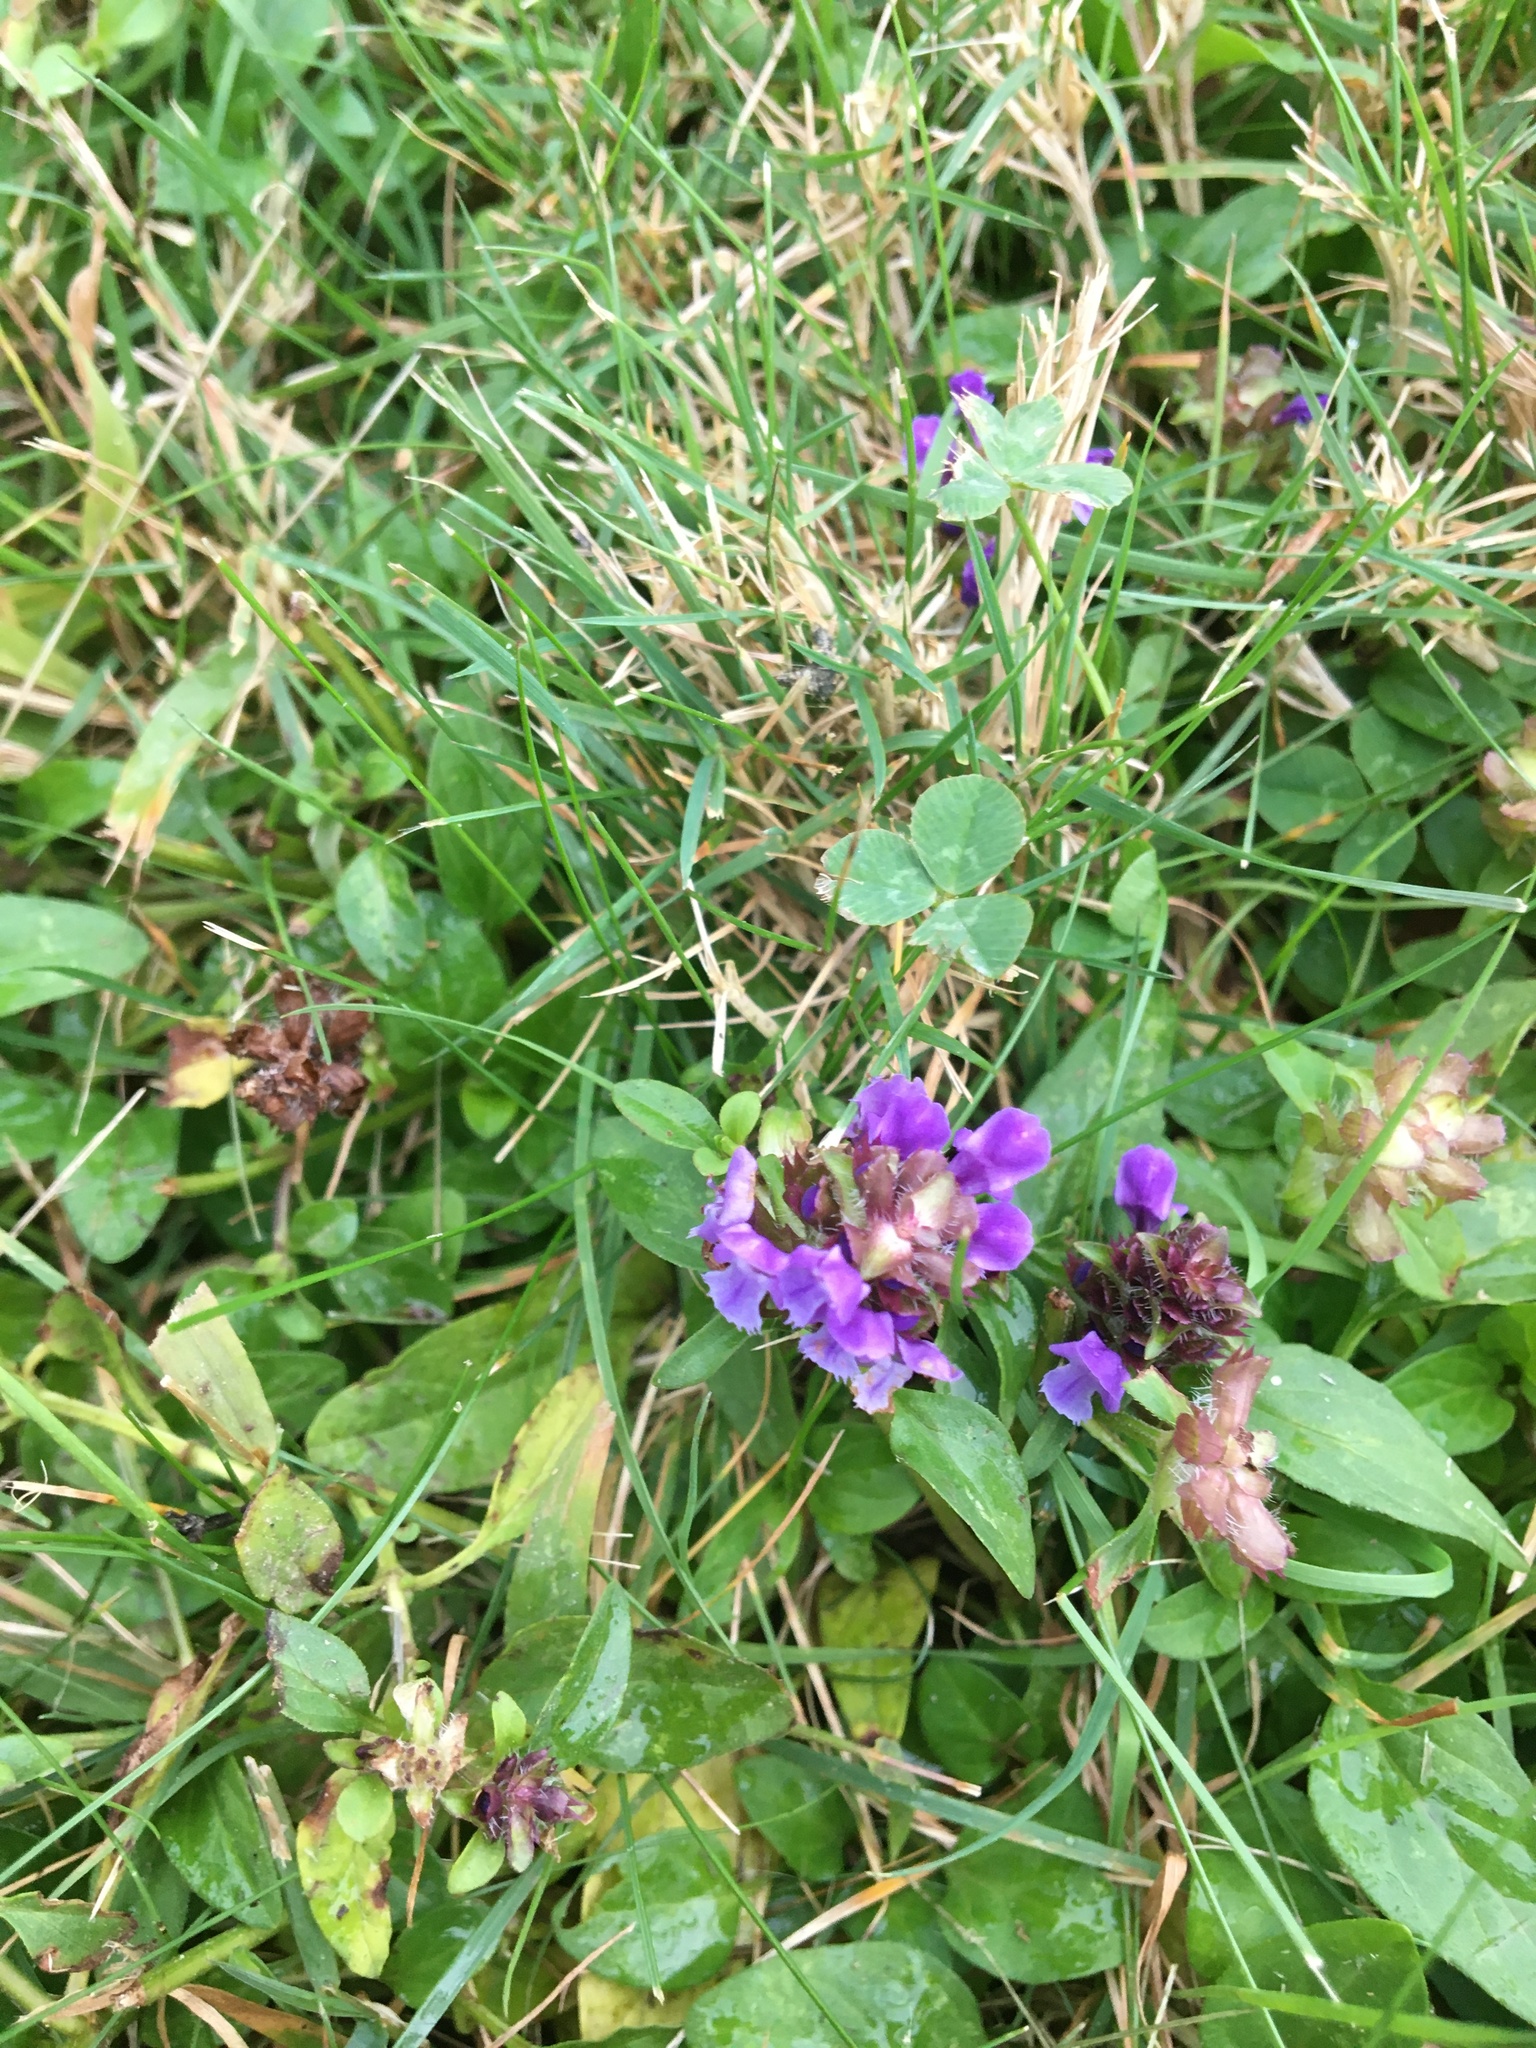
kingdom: Plantae
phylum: Tracheophyta
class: Magnoliopsida
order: Lamiales
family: Lamiaceae
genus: Prunella
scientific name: Prunella vulgaris
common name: Heal-all
